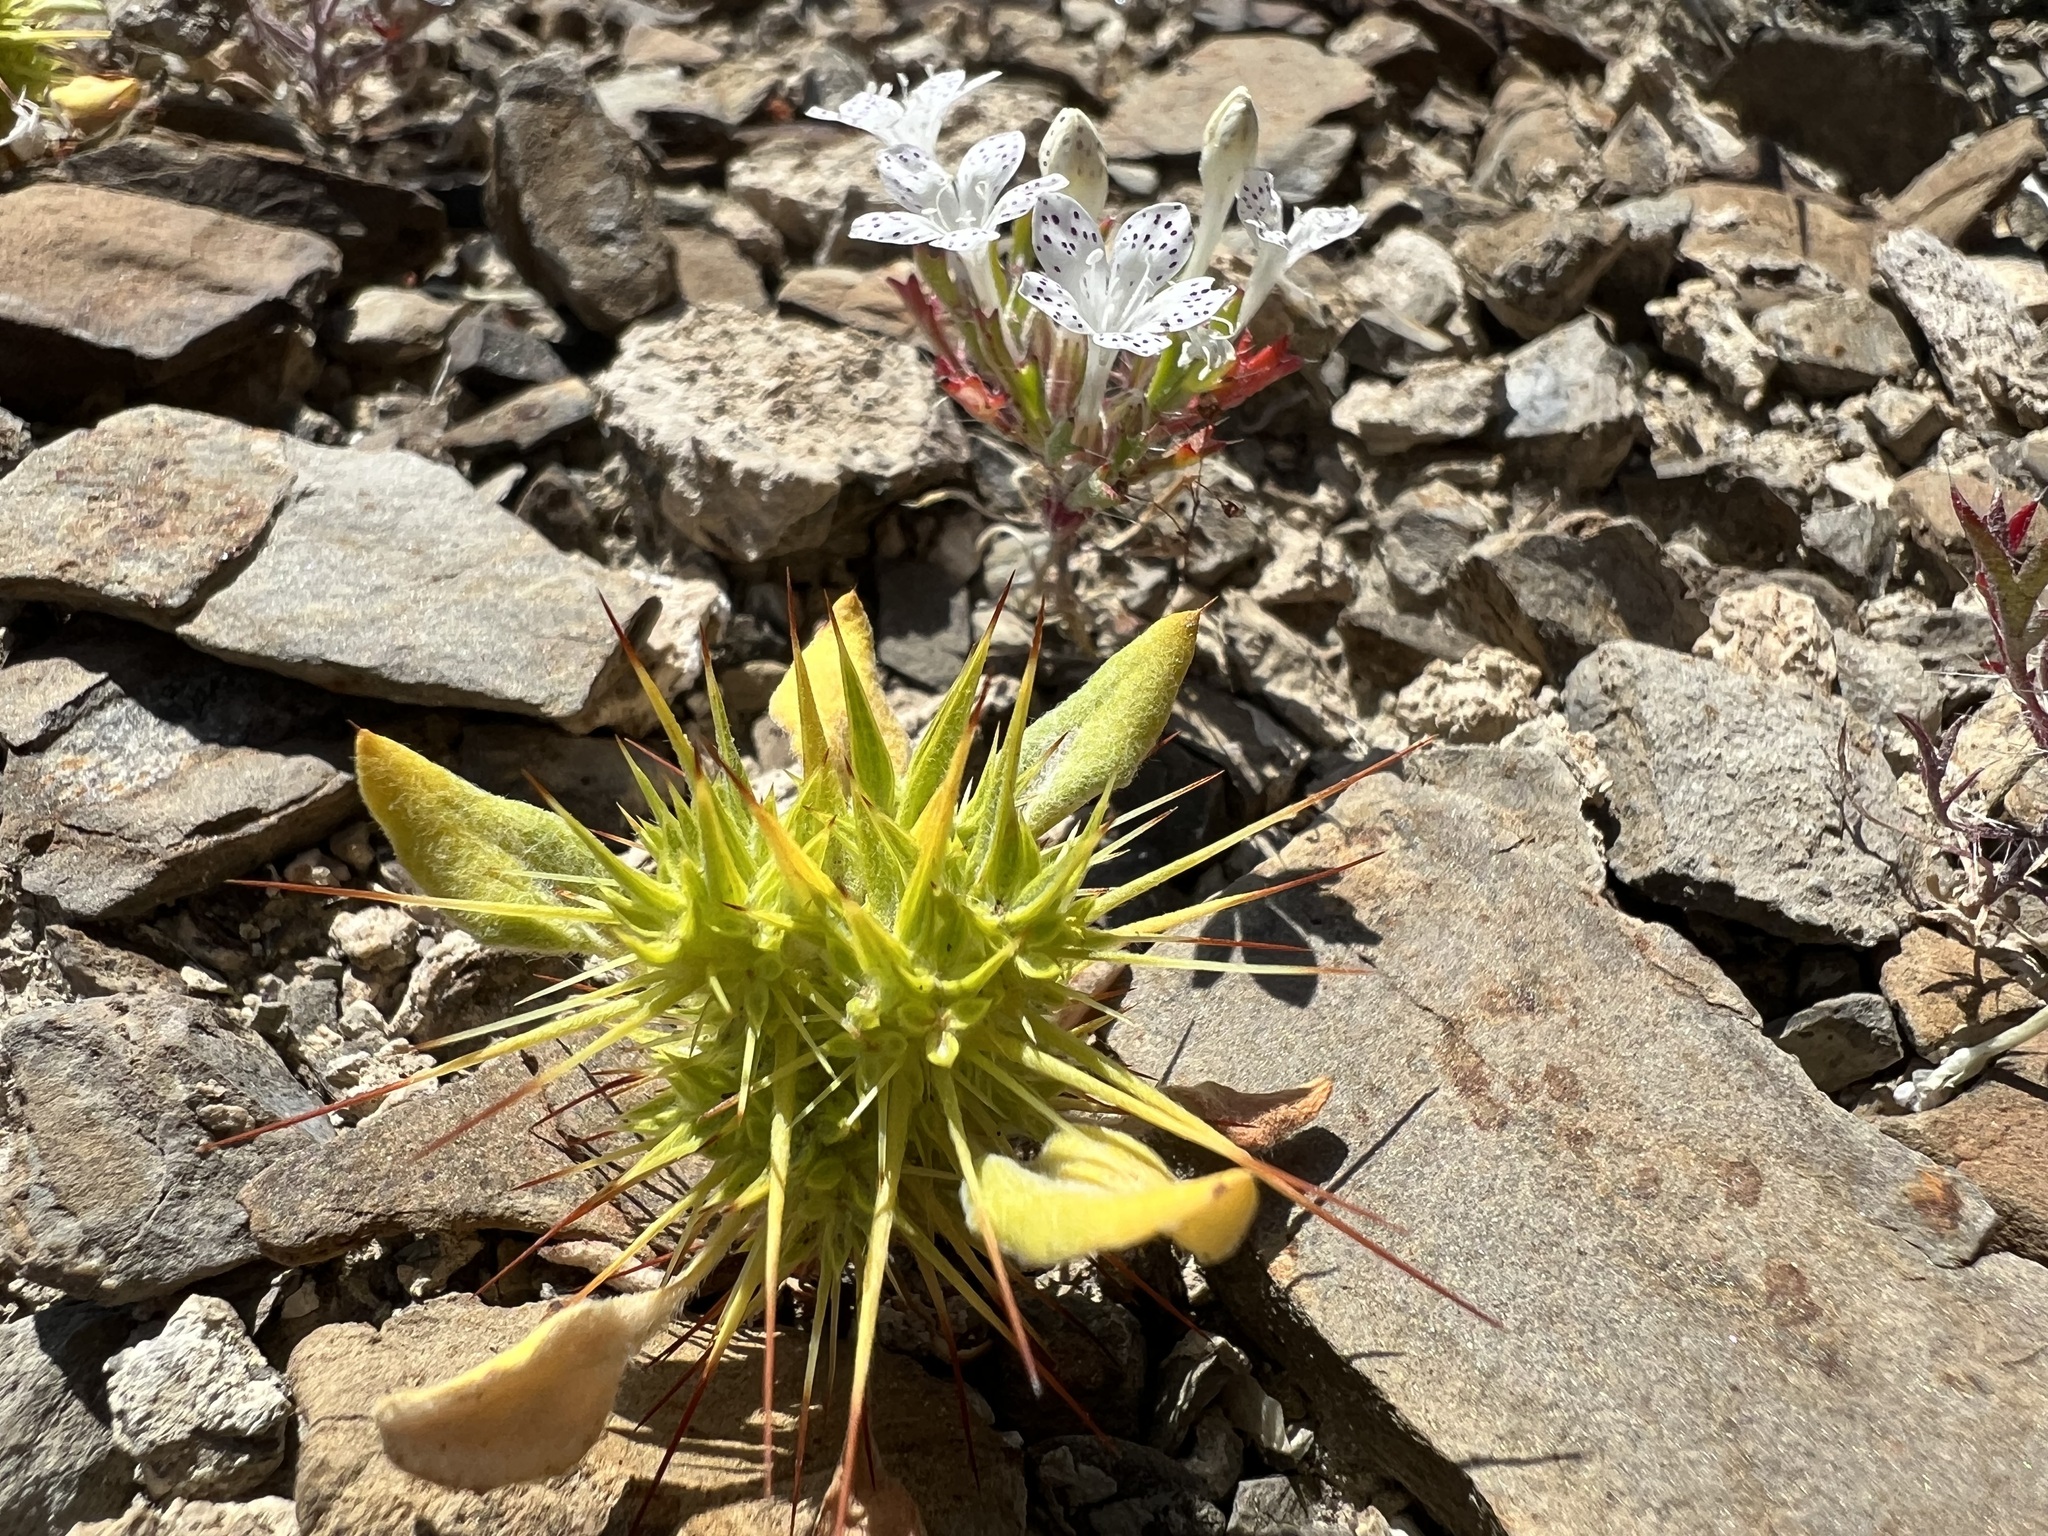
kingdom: Plantae
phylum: Tracheophyta
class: Magnoliopsida
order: Caryophyllales
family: Polygonaceae
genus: Chorizanthe
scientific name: Chorizanthe rigida
